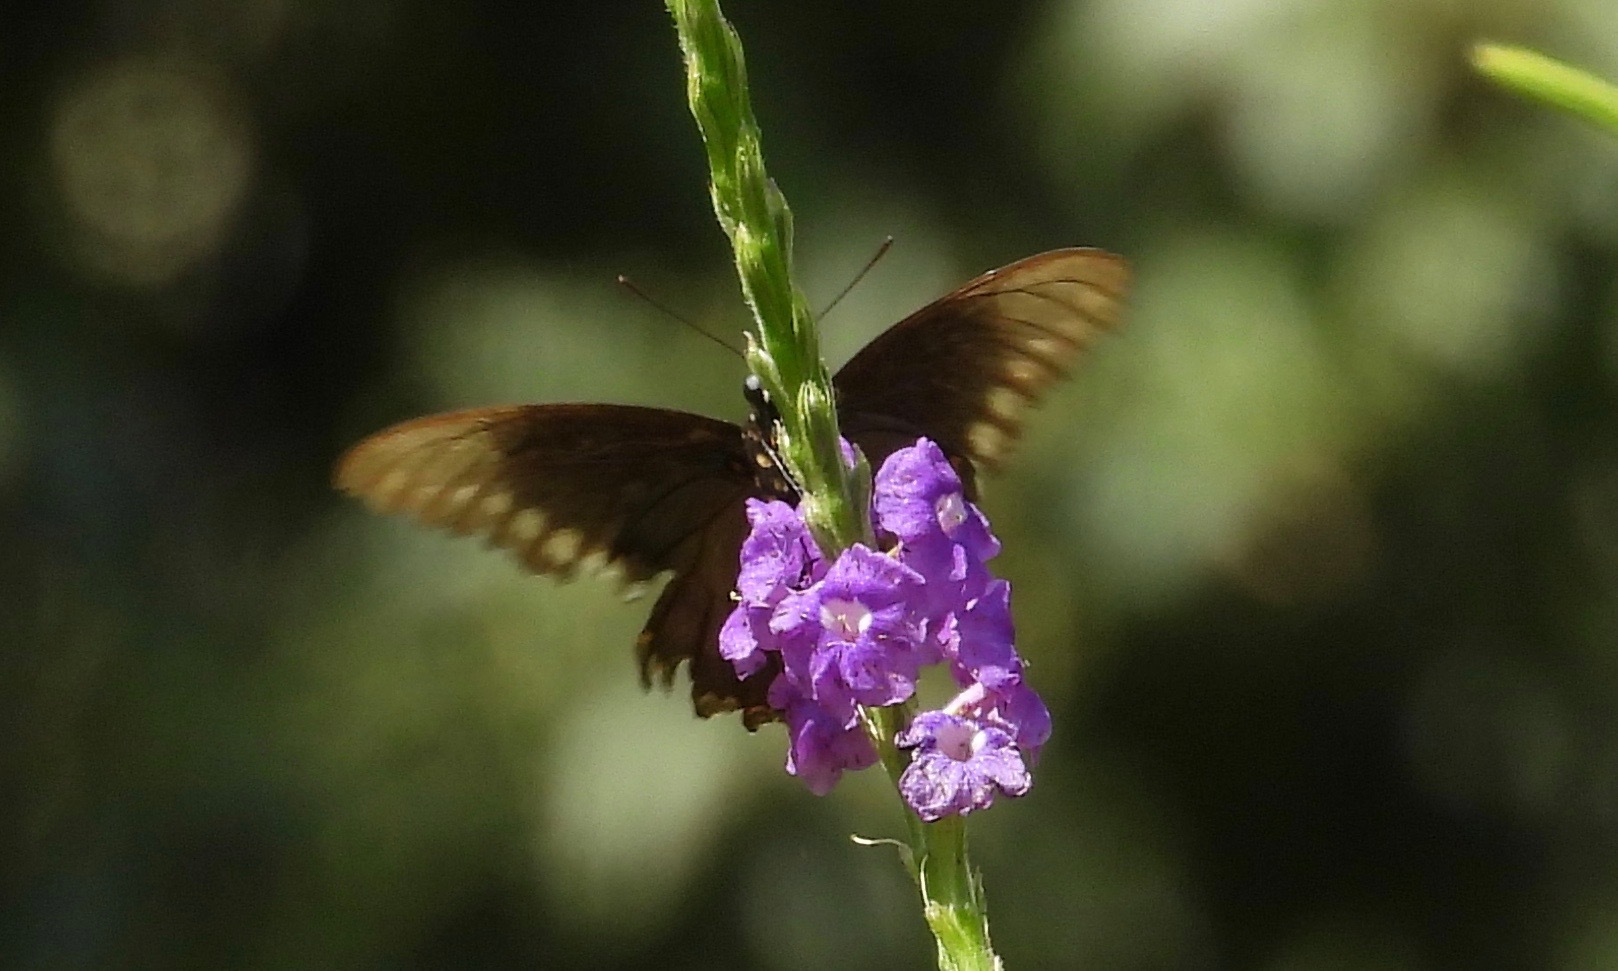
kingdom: Animalia
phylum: Arthropoda
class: Insecta
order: Lepidoptera
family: Papilionidae
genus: Battus
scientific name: Battus polydamas
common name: Polydamas swallowtail
